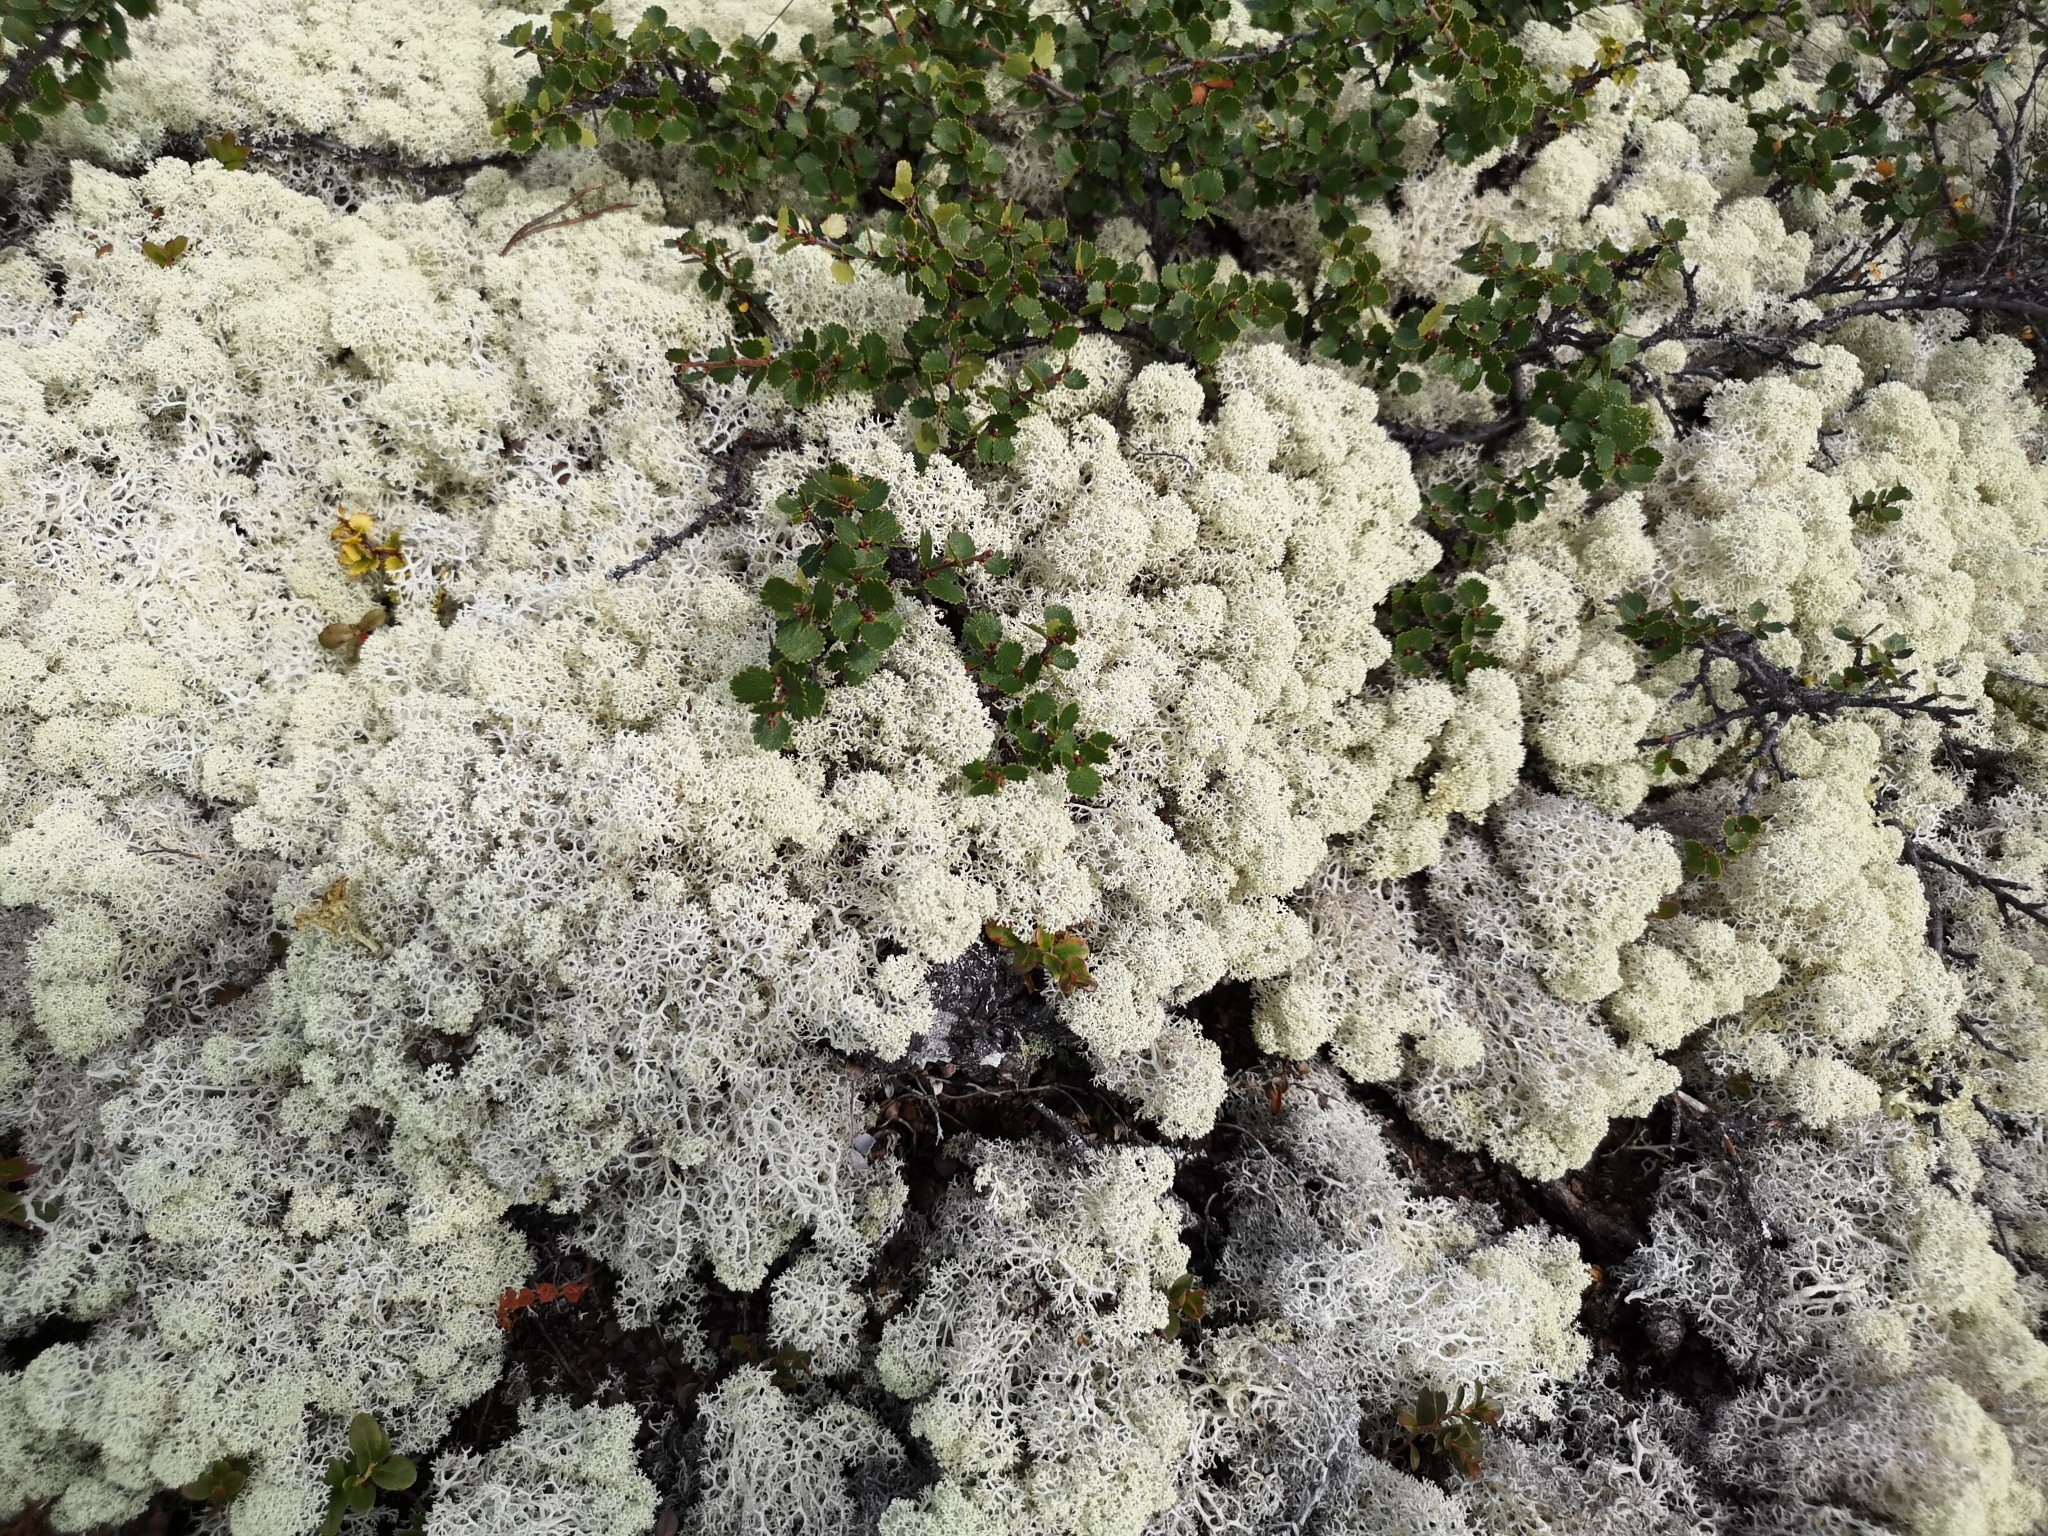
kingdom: Fungi
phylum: Ascomycota
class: Lecanoromycetes
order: Lecanorales
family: Cladoniaceae
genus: Cladonia
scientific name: Cladonia stellaris
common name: Star-tipped reindeer lichen
